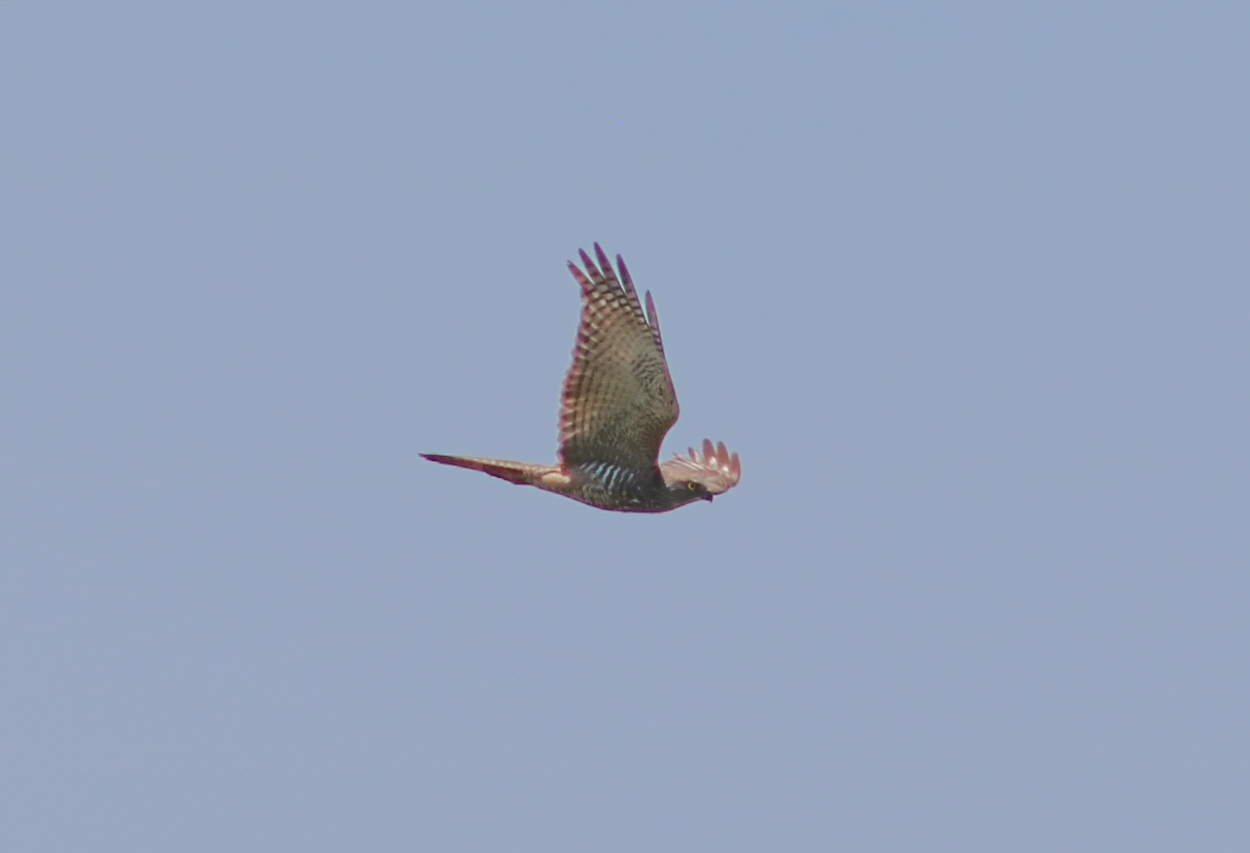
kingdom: Animalia
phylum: Chordata
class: Aves
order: Accipitriformes
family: Accipitridae
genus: Accipiter
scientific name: Accipiter fasciatus
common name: Brown goshawk
